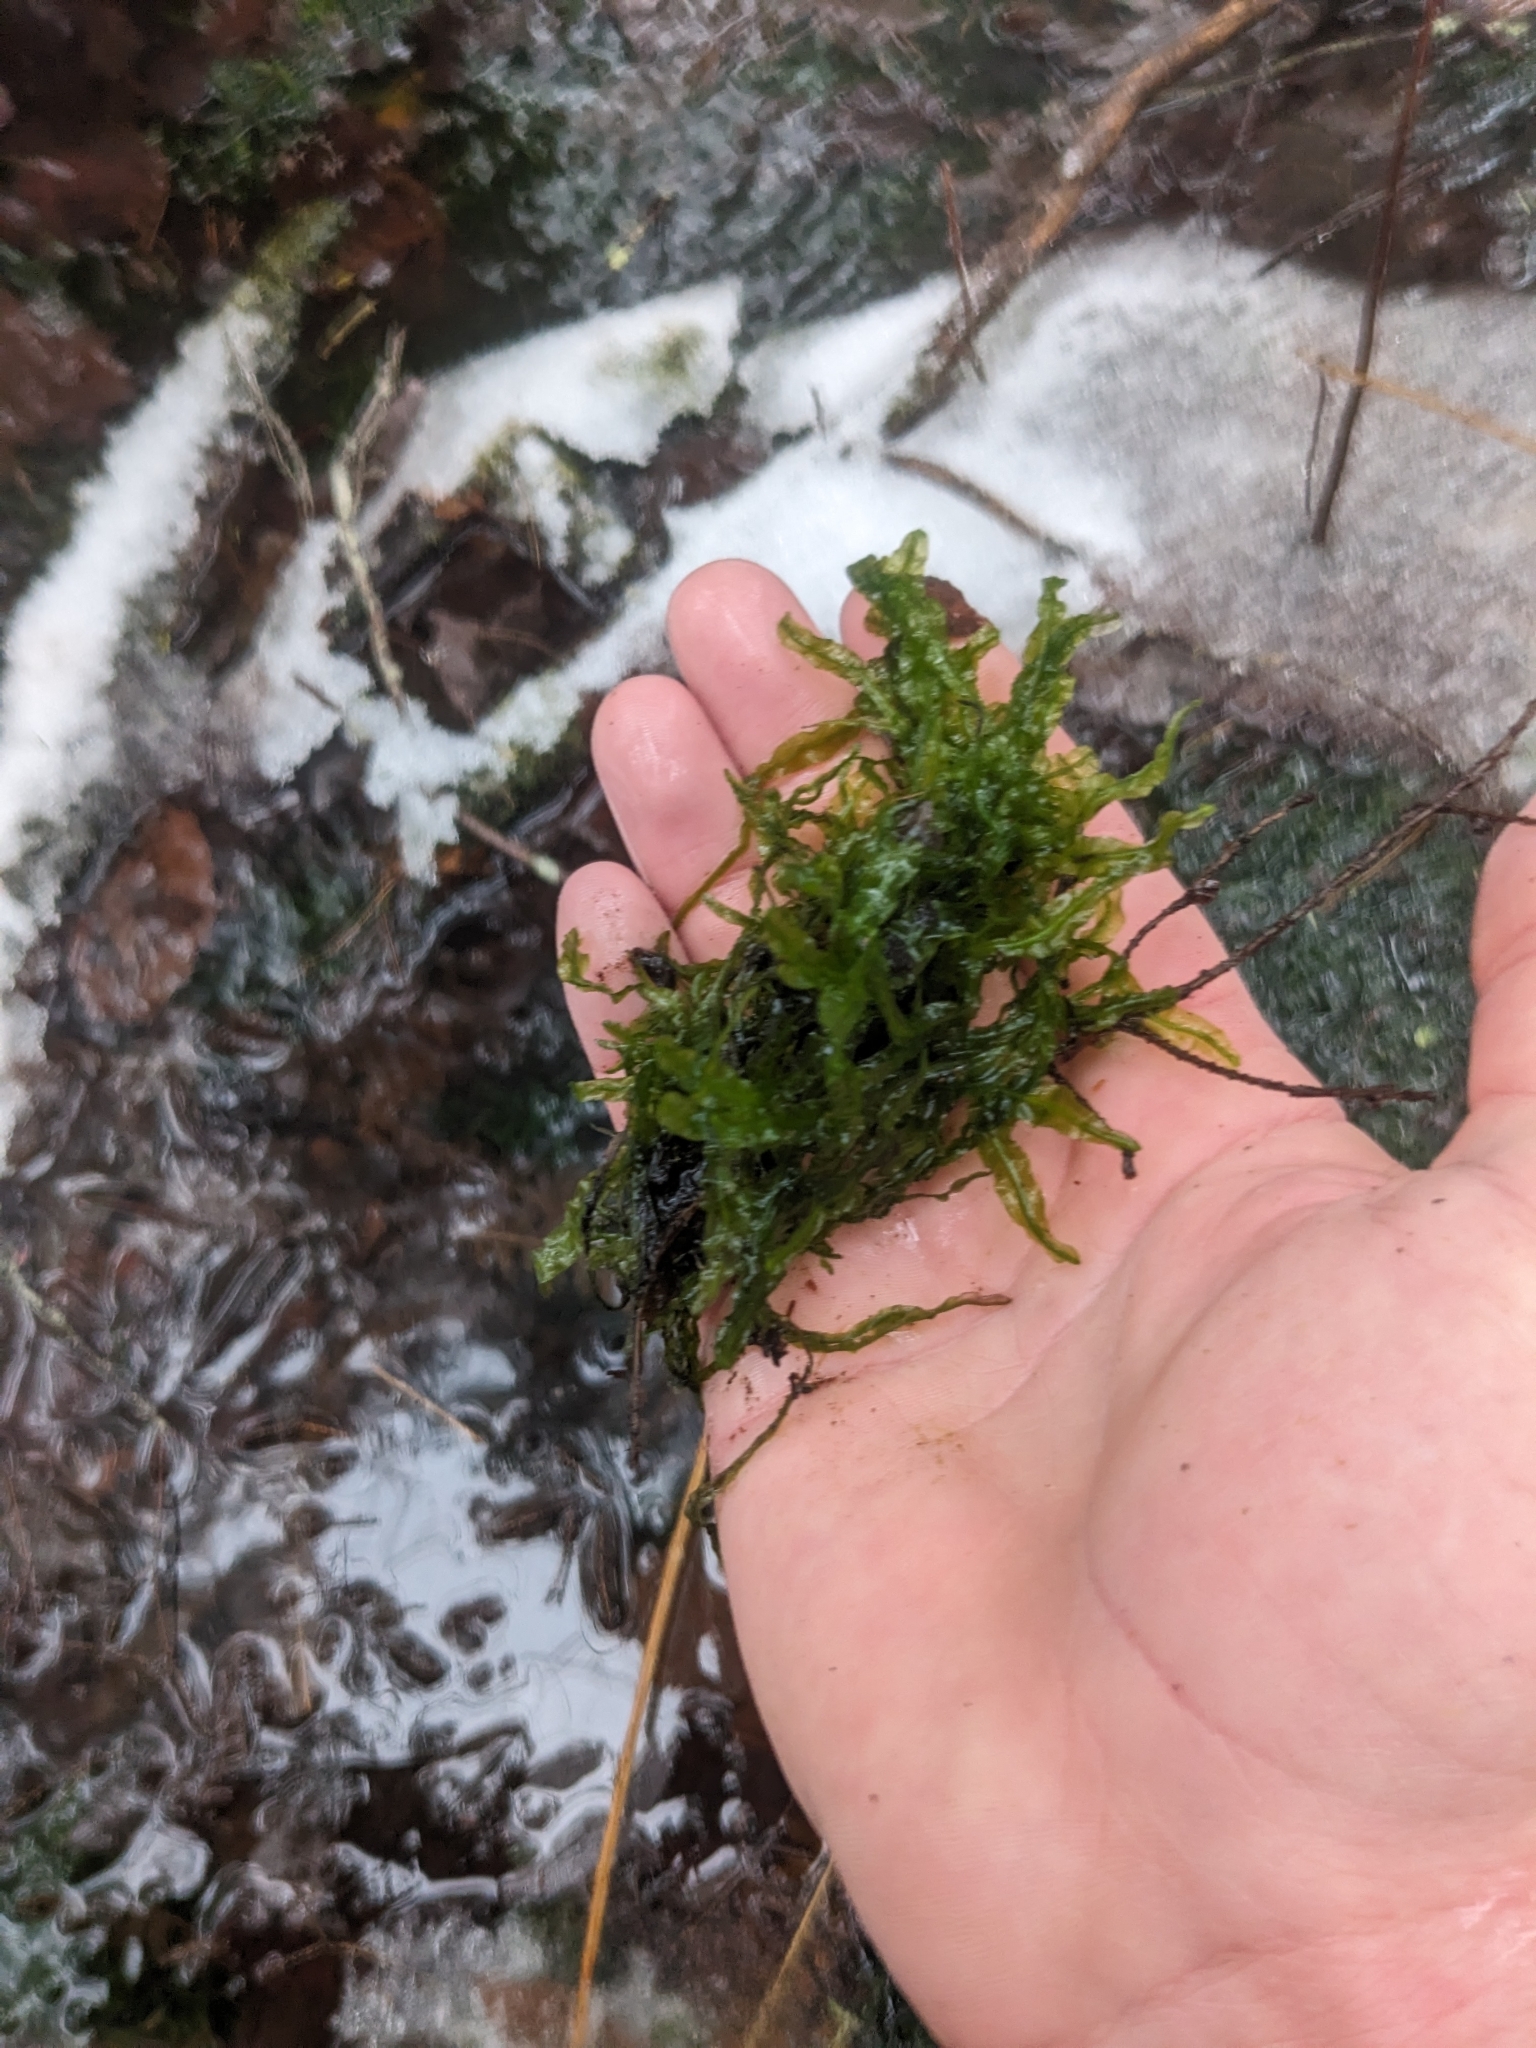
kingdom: Plantae
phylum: Marchantiophyta
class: Jungermanniopsida
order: Pallaviciniales
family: Pallaviciniaceae
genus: Pallavicinia
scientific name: Pallavicinia lyellii
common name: Veilwort
